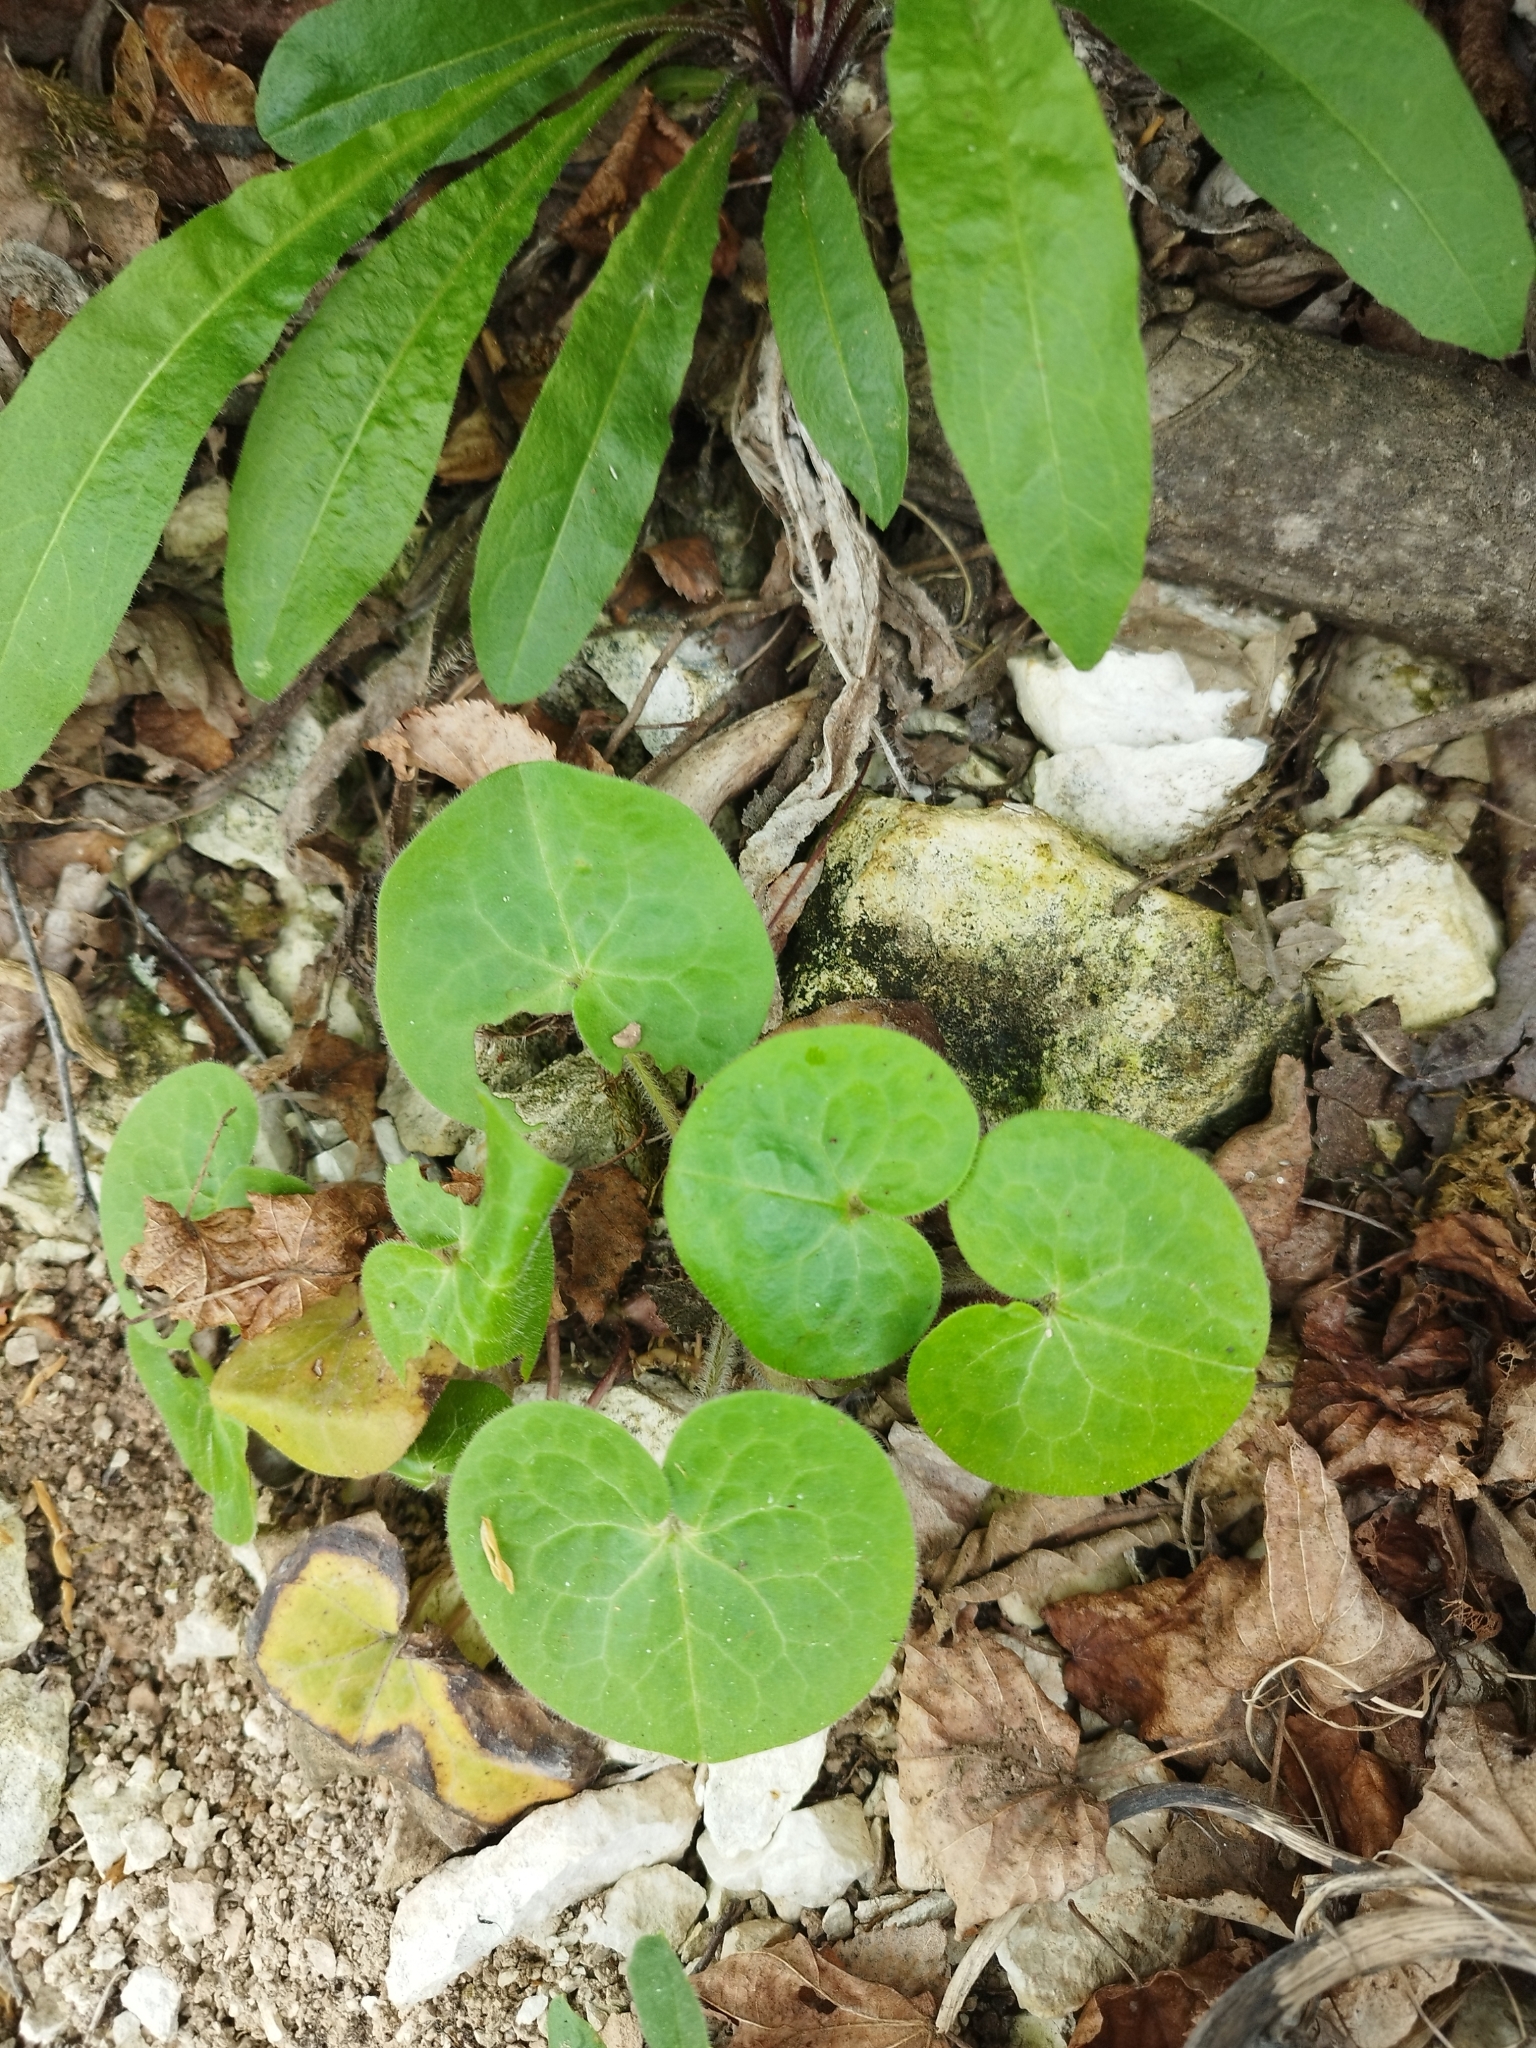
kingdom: Plantae
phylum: Tracheophyta
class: Magnoliopsida
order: Piperales
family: Aristolochiaceae
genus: Asarum
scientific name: Asarum europaeum
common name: Asarabacca
